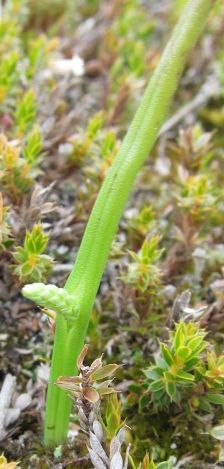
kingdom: Plantae
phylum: Tracheophyta
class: Liliopsida
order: Asparagales
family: Orchidaceae
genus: Microtis
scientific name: Microtis unifolia
